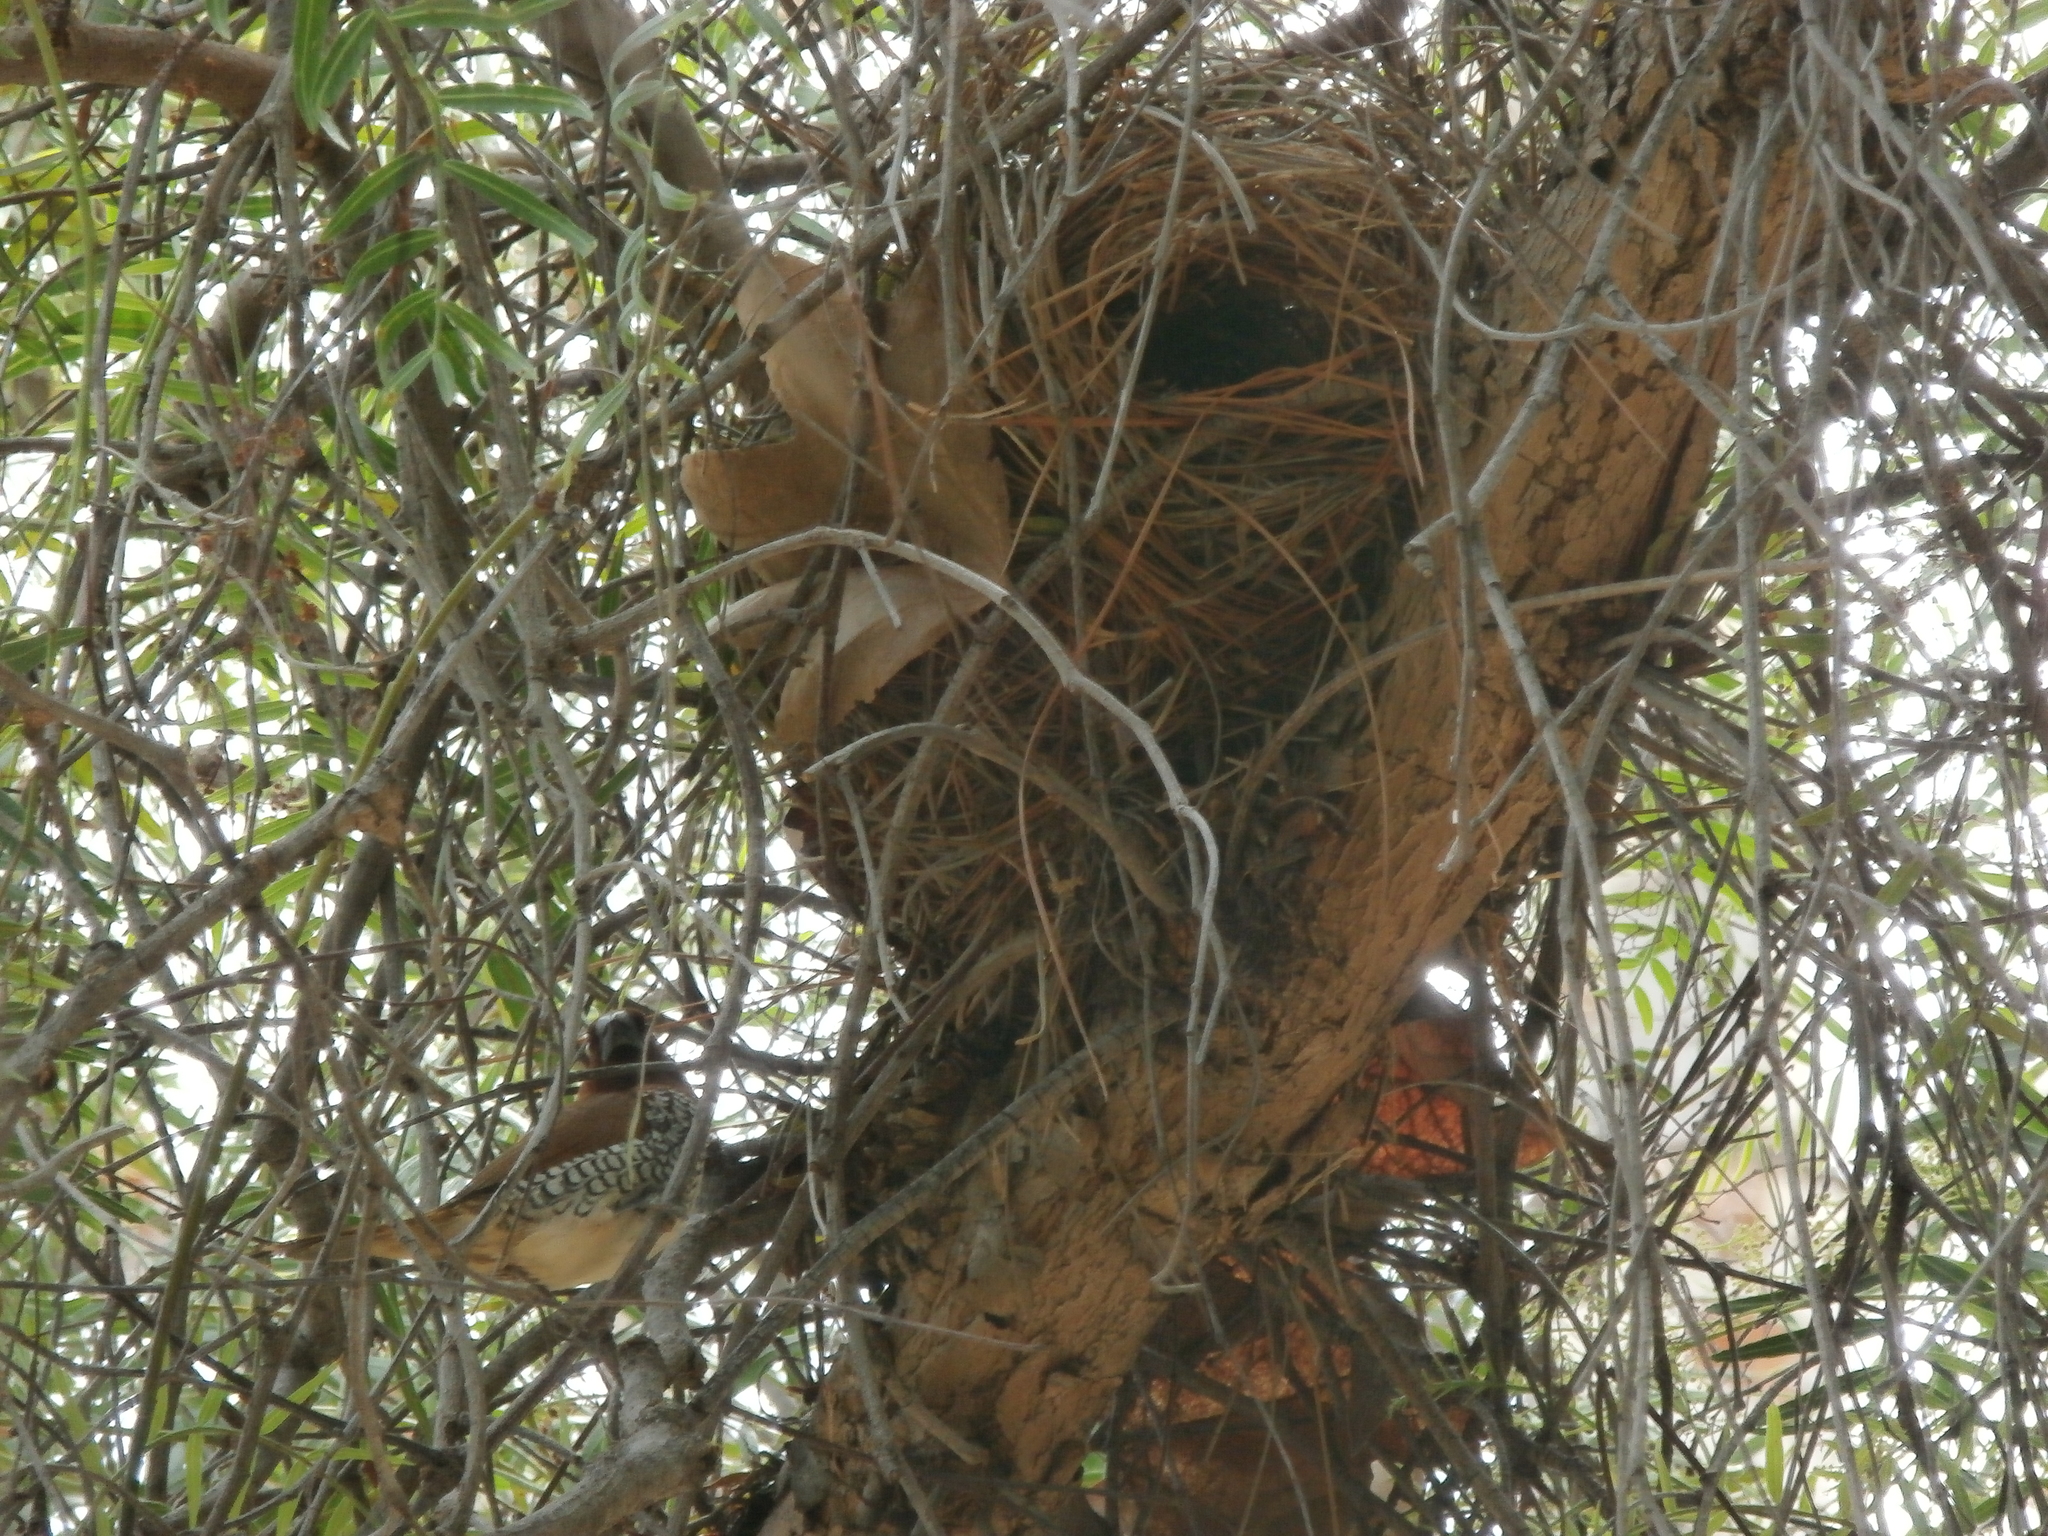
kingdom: Animalia
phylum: Chordata
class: Aves
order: Passeriformes
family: Estrildidae
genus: Lonchura
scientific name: Lonchura punctulata
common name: Scaly-breasted munia
